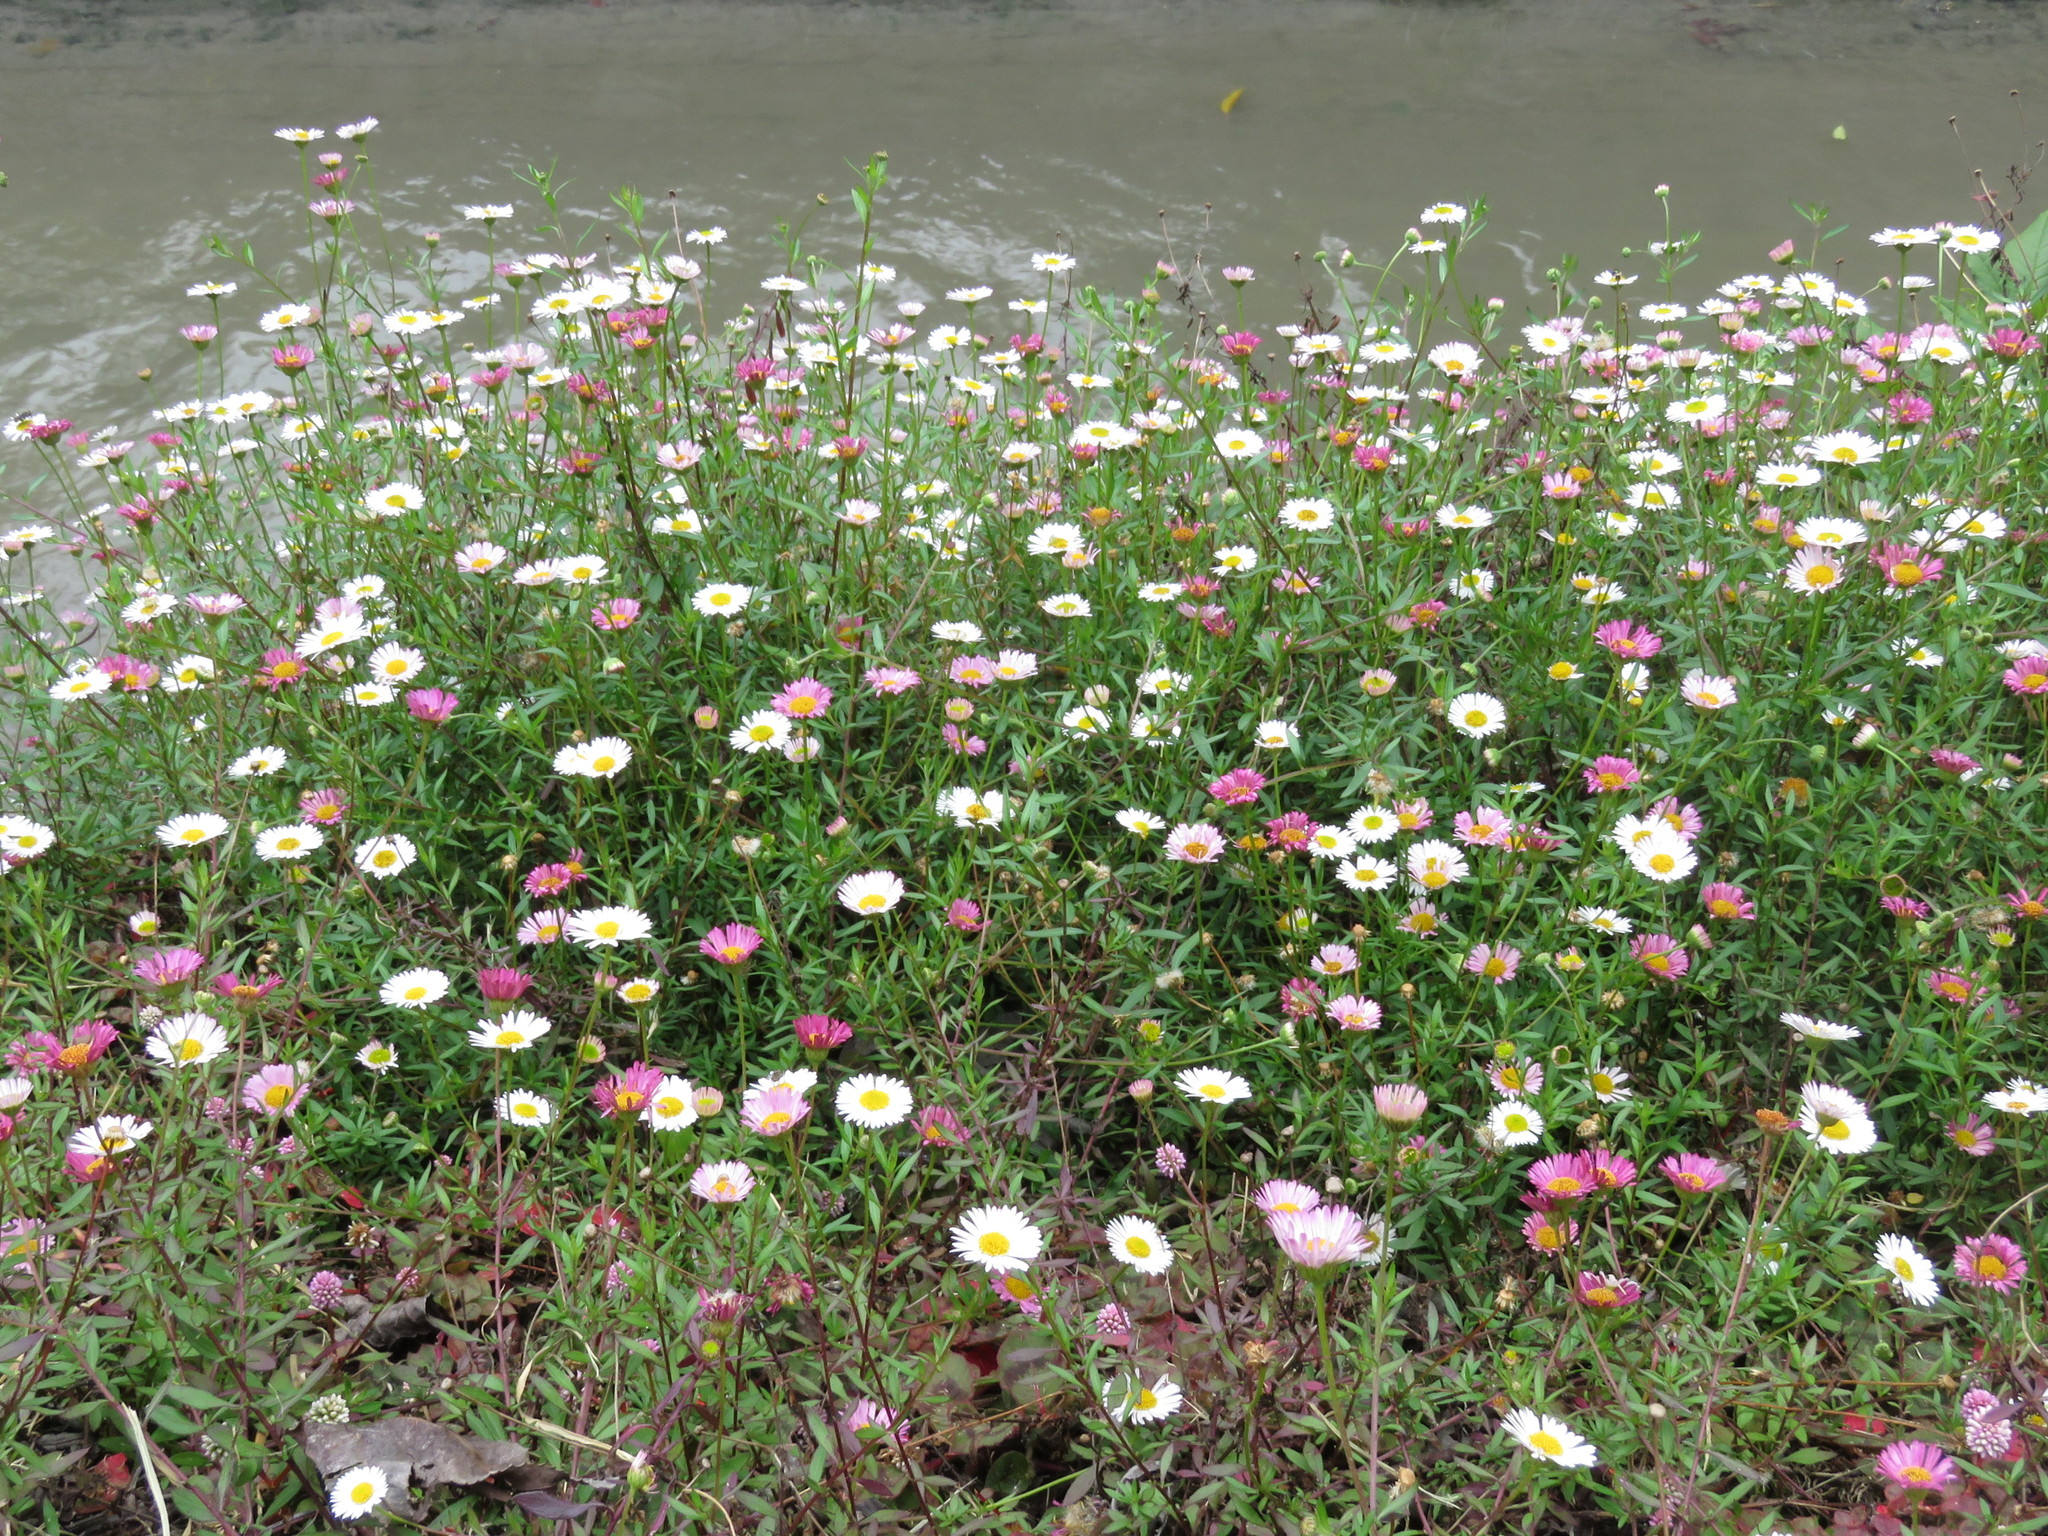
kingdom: Plantae
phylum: Tracheophyta
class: Magnoliopsida
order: Asterales
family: Asteraceae
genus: Erigeron
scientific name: Erigeron karvinskianus
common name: Mexican fleabane
